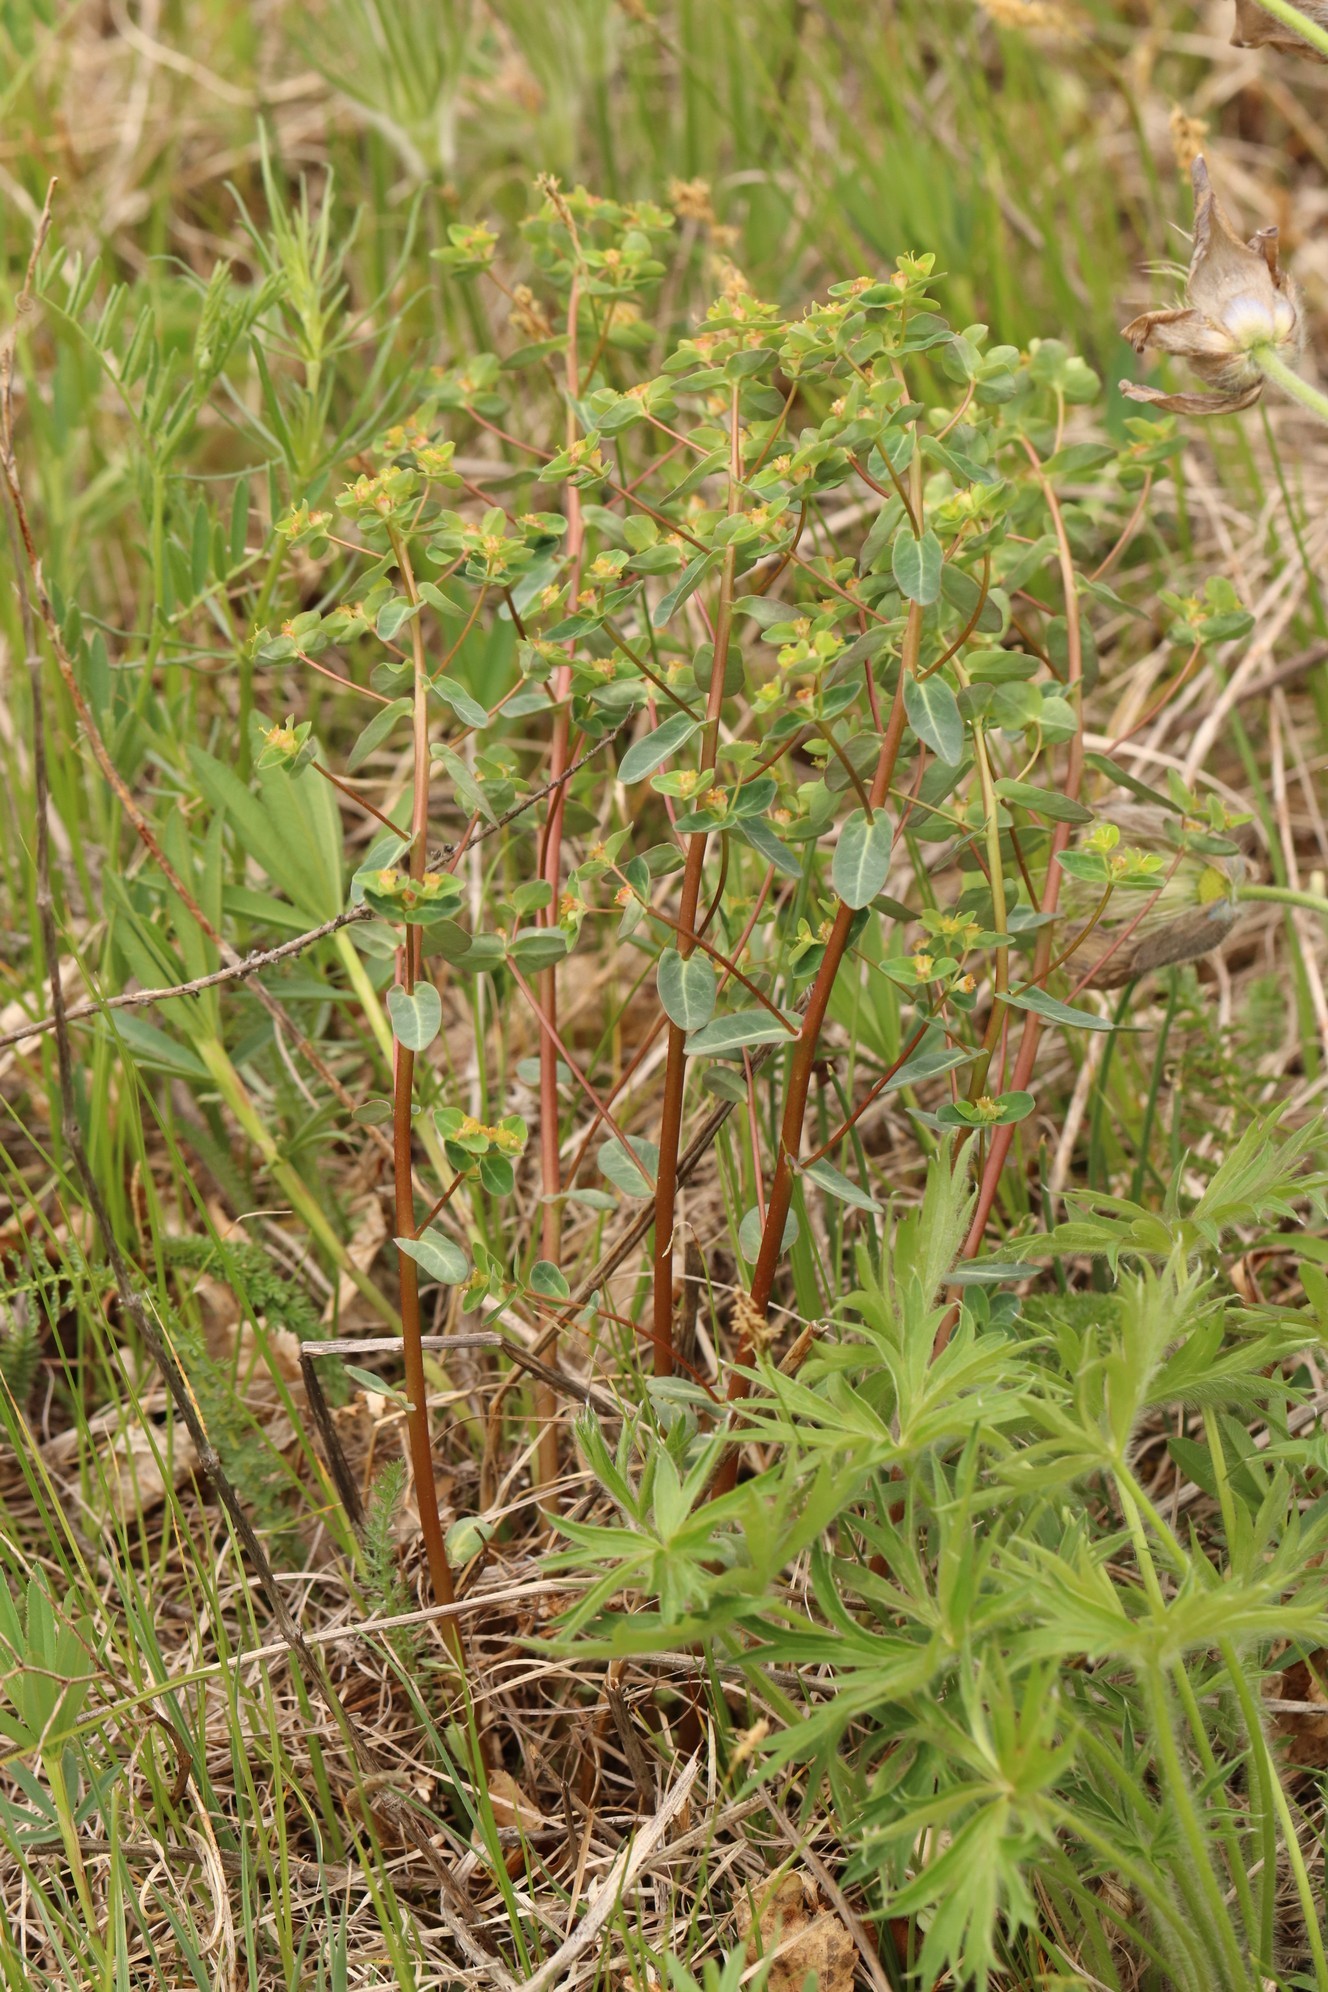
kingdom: Plantae
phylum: Tracheophyta
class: Magnoliopsida
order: Malpighiales
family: Euphorbiaceae
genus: Euphorbia
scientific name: Euphorbia alpina
